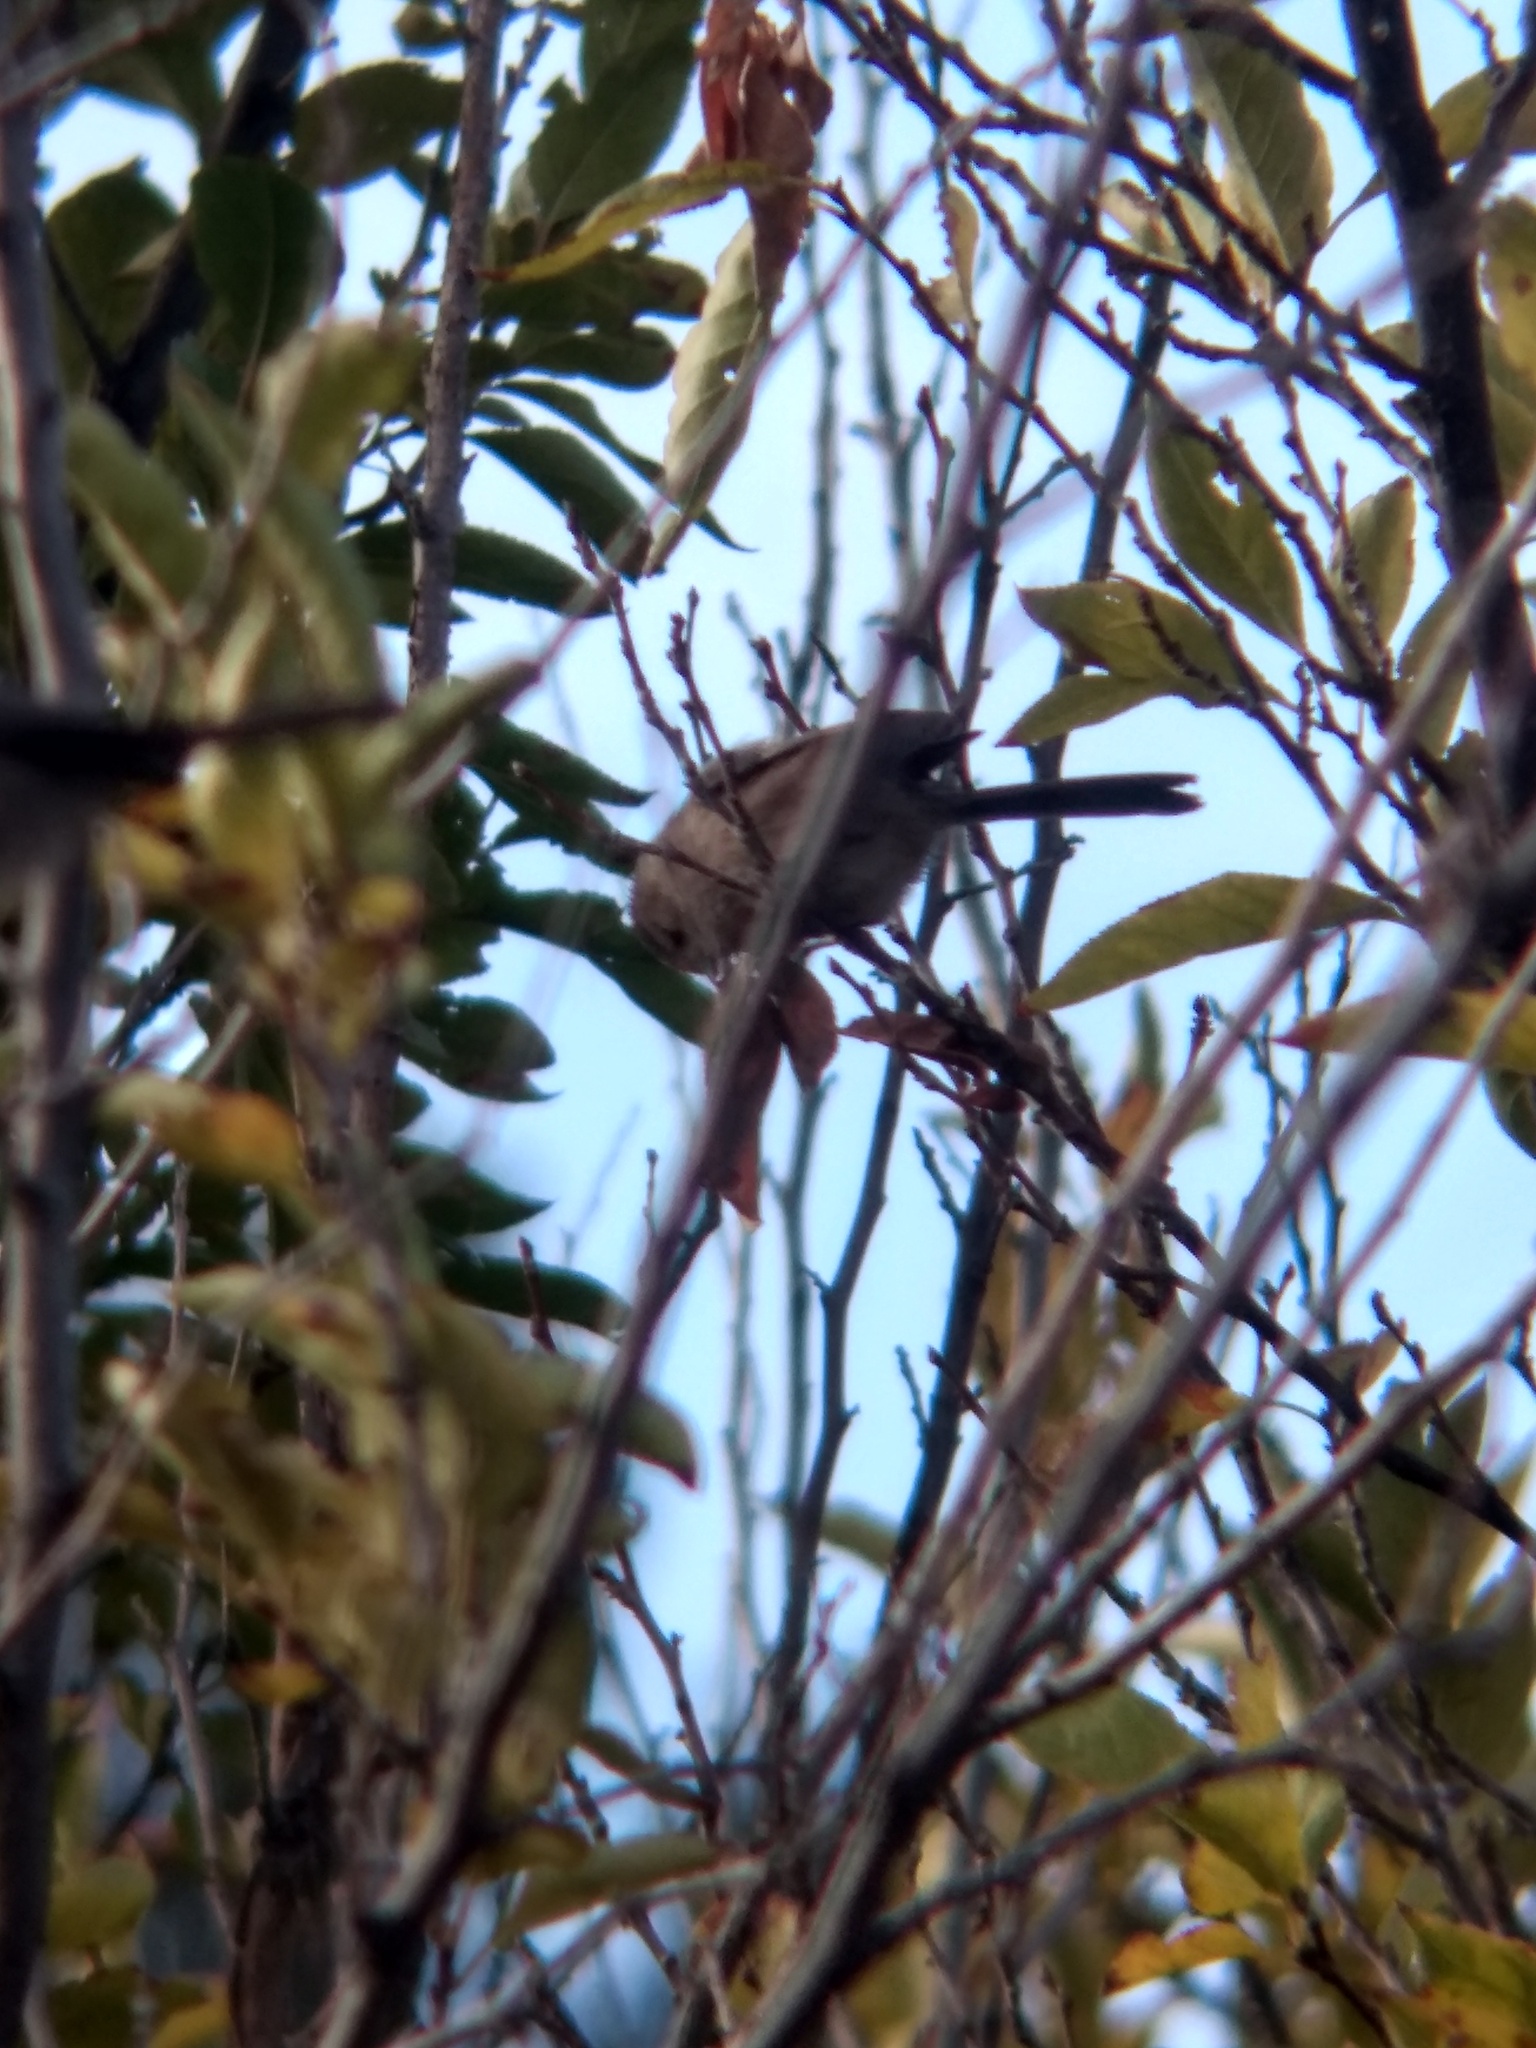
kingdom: Animalia
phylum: Chordata
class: Aves
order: Passeriformes
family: Aegithalidae
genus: Psaltriparus
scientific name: Psaltriparus minimus
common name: American bushtit
